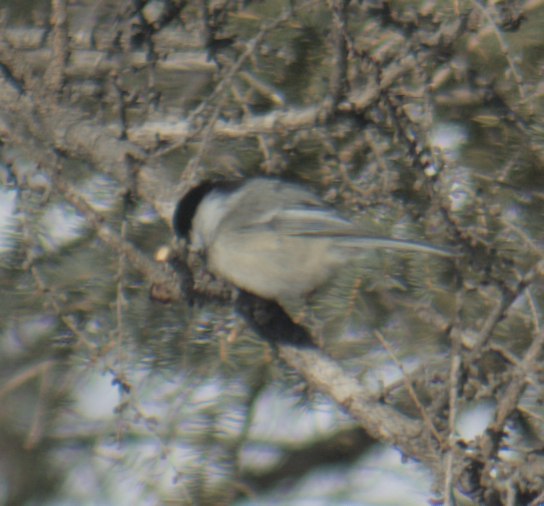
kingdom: Animalia
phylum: Chordata
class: Aves
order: Passeriformes
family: Paridae
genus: Poecile
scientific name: Poecile atricapillus
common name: Black-capped chickadee
